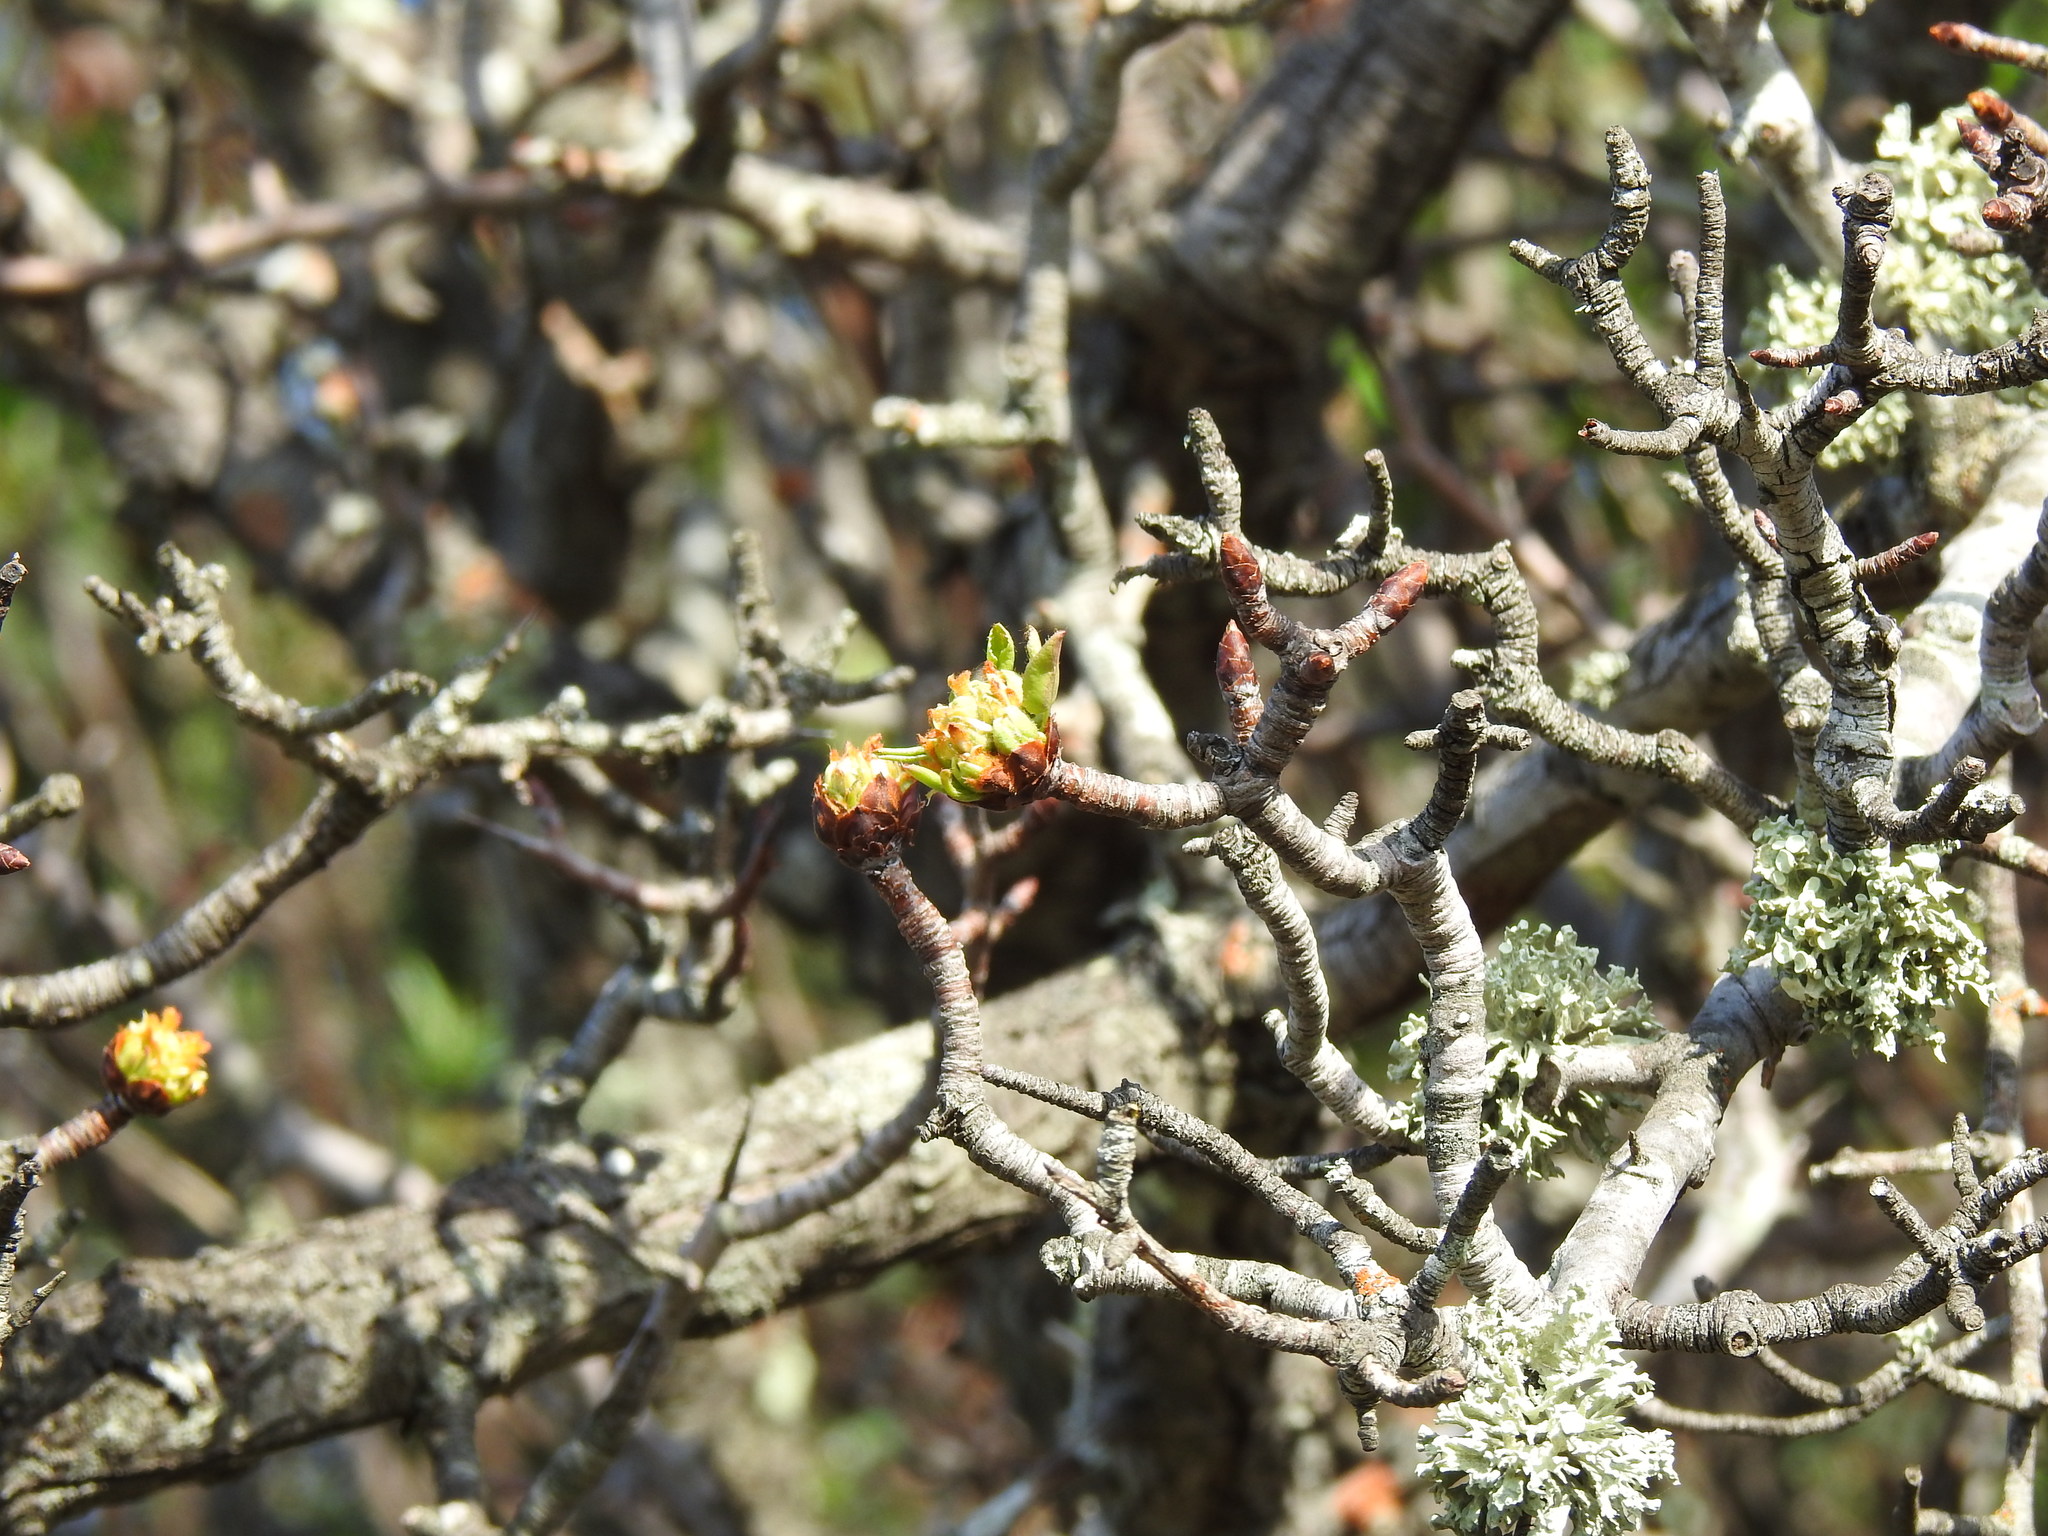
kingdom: Plantae
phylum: Tracheophyta
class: Magnoliopsida
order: Rosales
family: Rosaceae
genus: Pyrus
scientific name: Pyrus bourgaeana
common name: Iberian pear
